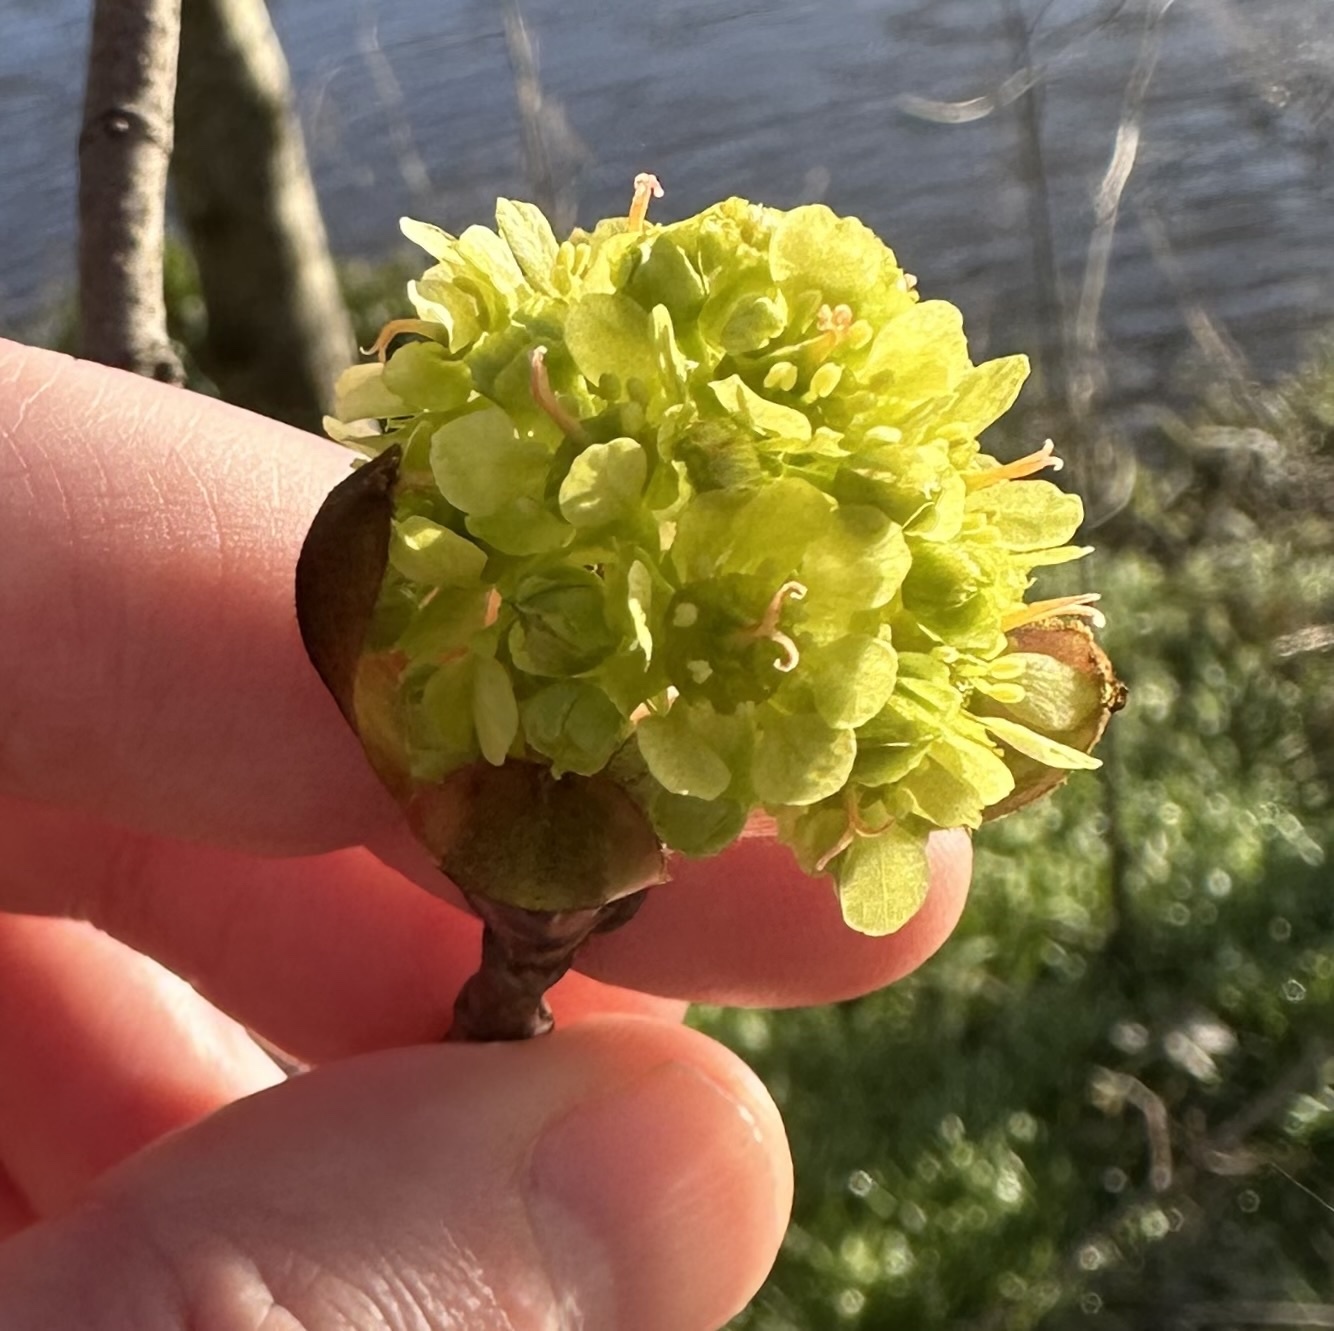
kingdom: Plantae
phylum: Tracheophyta
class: Magnoliopsida
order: Sapindales
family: Sapindaceae
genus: Acer
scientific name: Acer platanoides
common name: Norway maple
